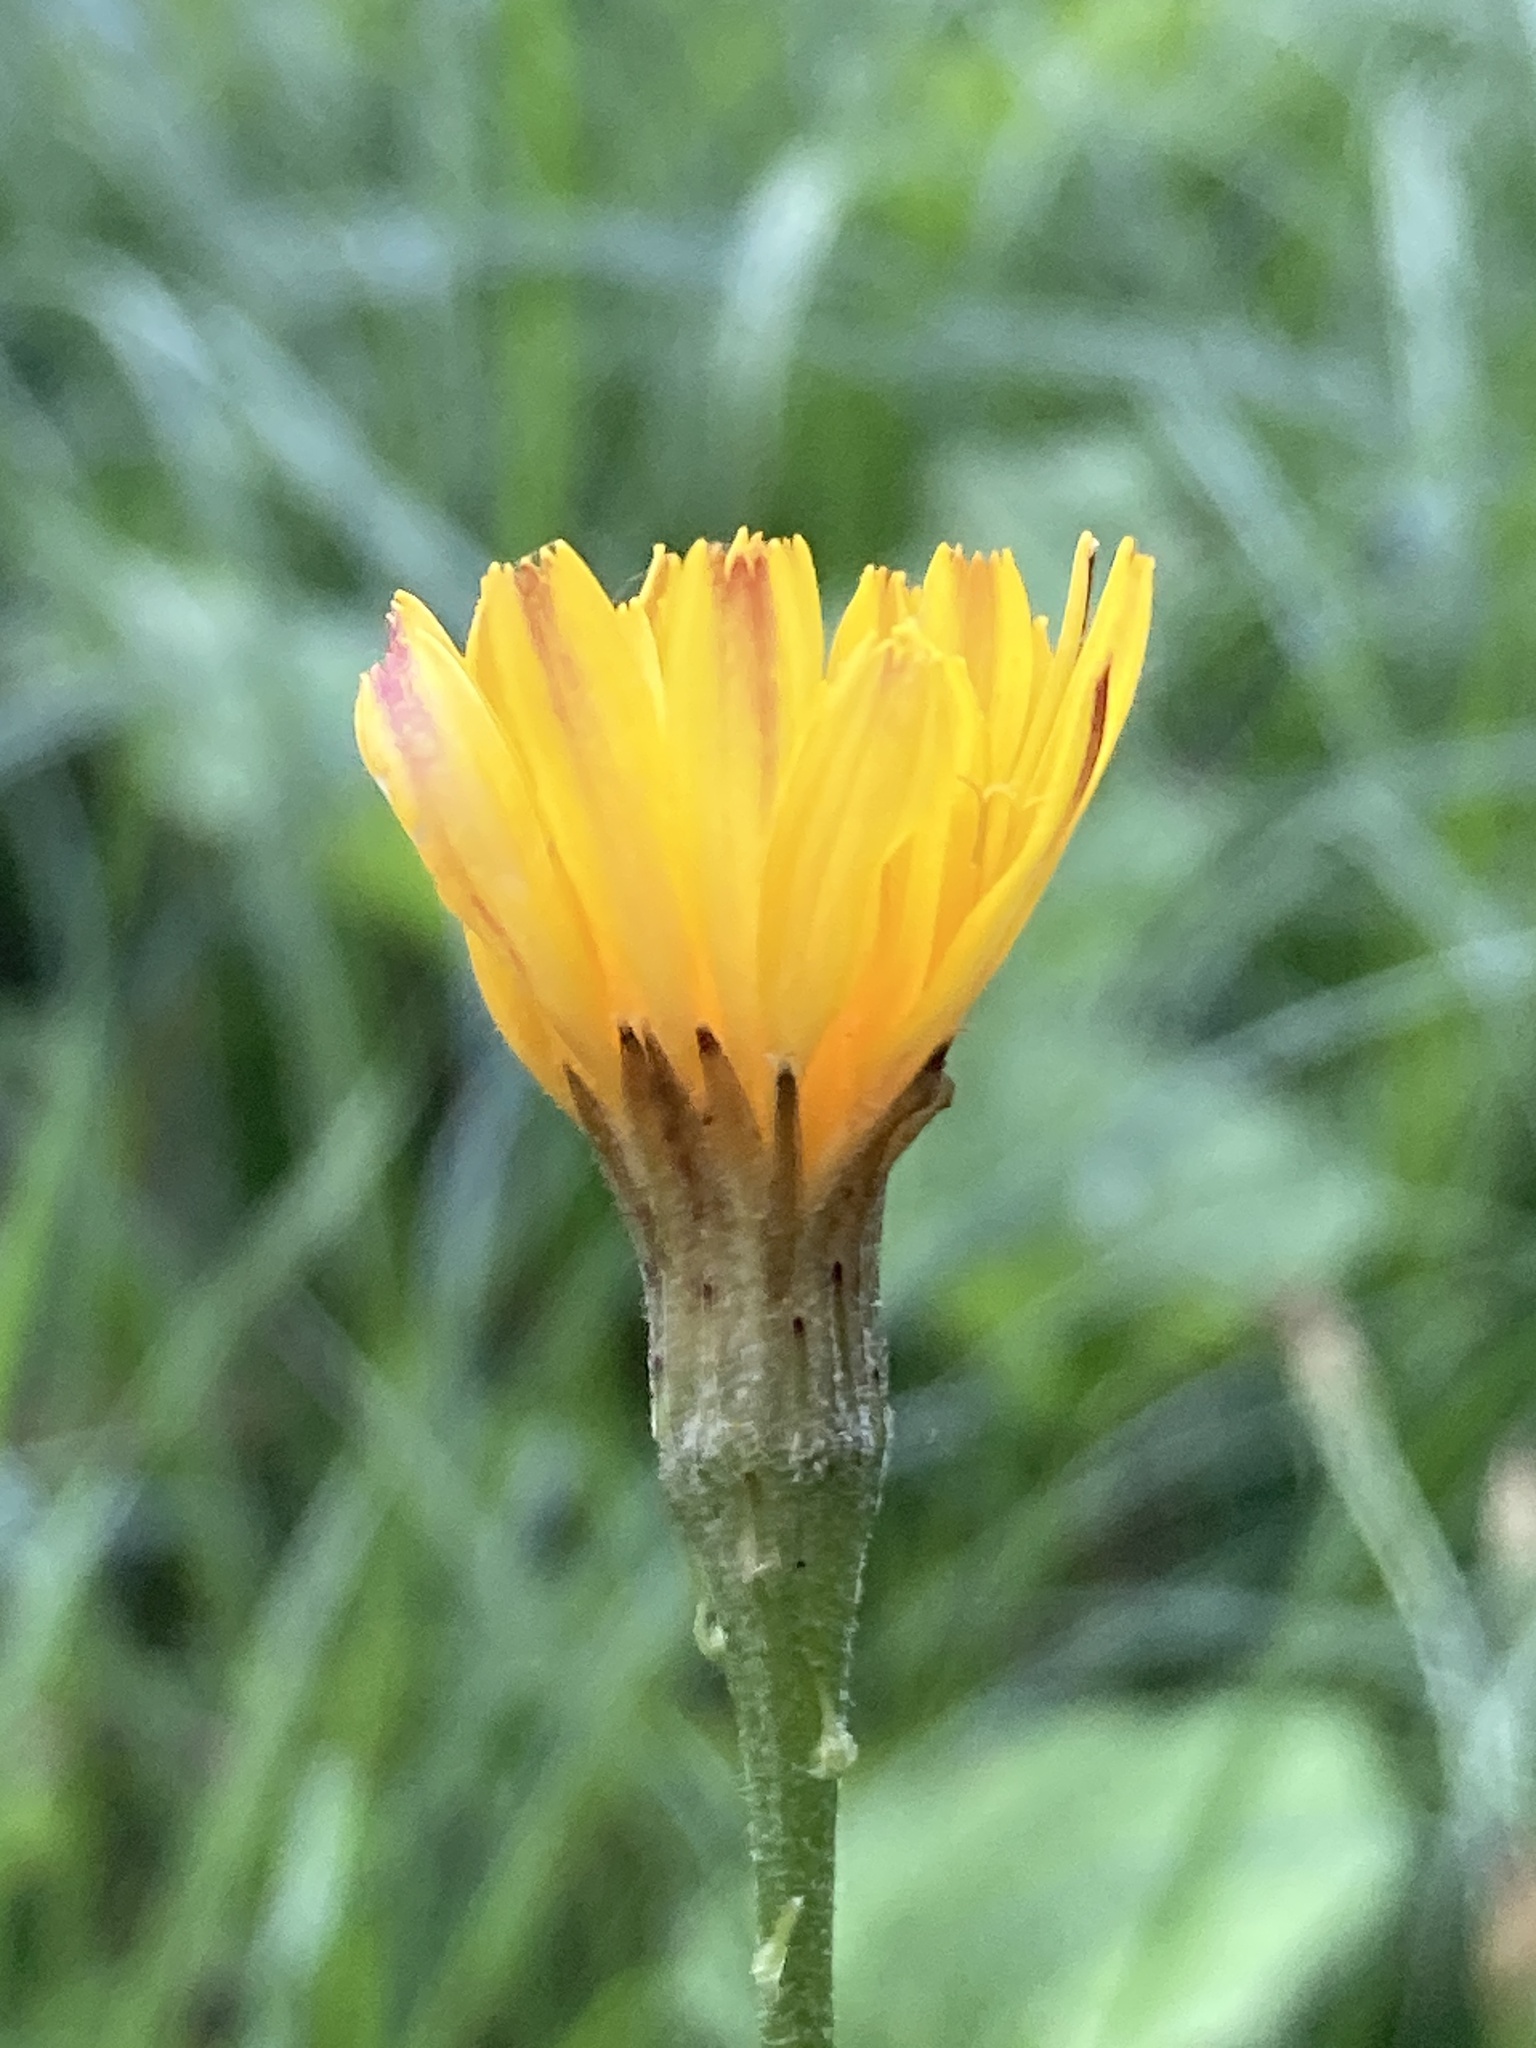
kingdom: Plantae
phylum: Tracheophyta
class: Magnoliopsida
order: Asterales
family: Asteraceae
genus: Scorzoneroides
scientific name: Scorzoneroides autumnalis
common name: Autumn hawkbit
